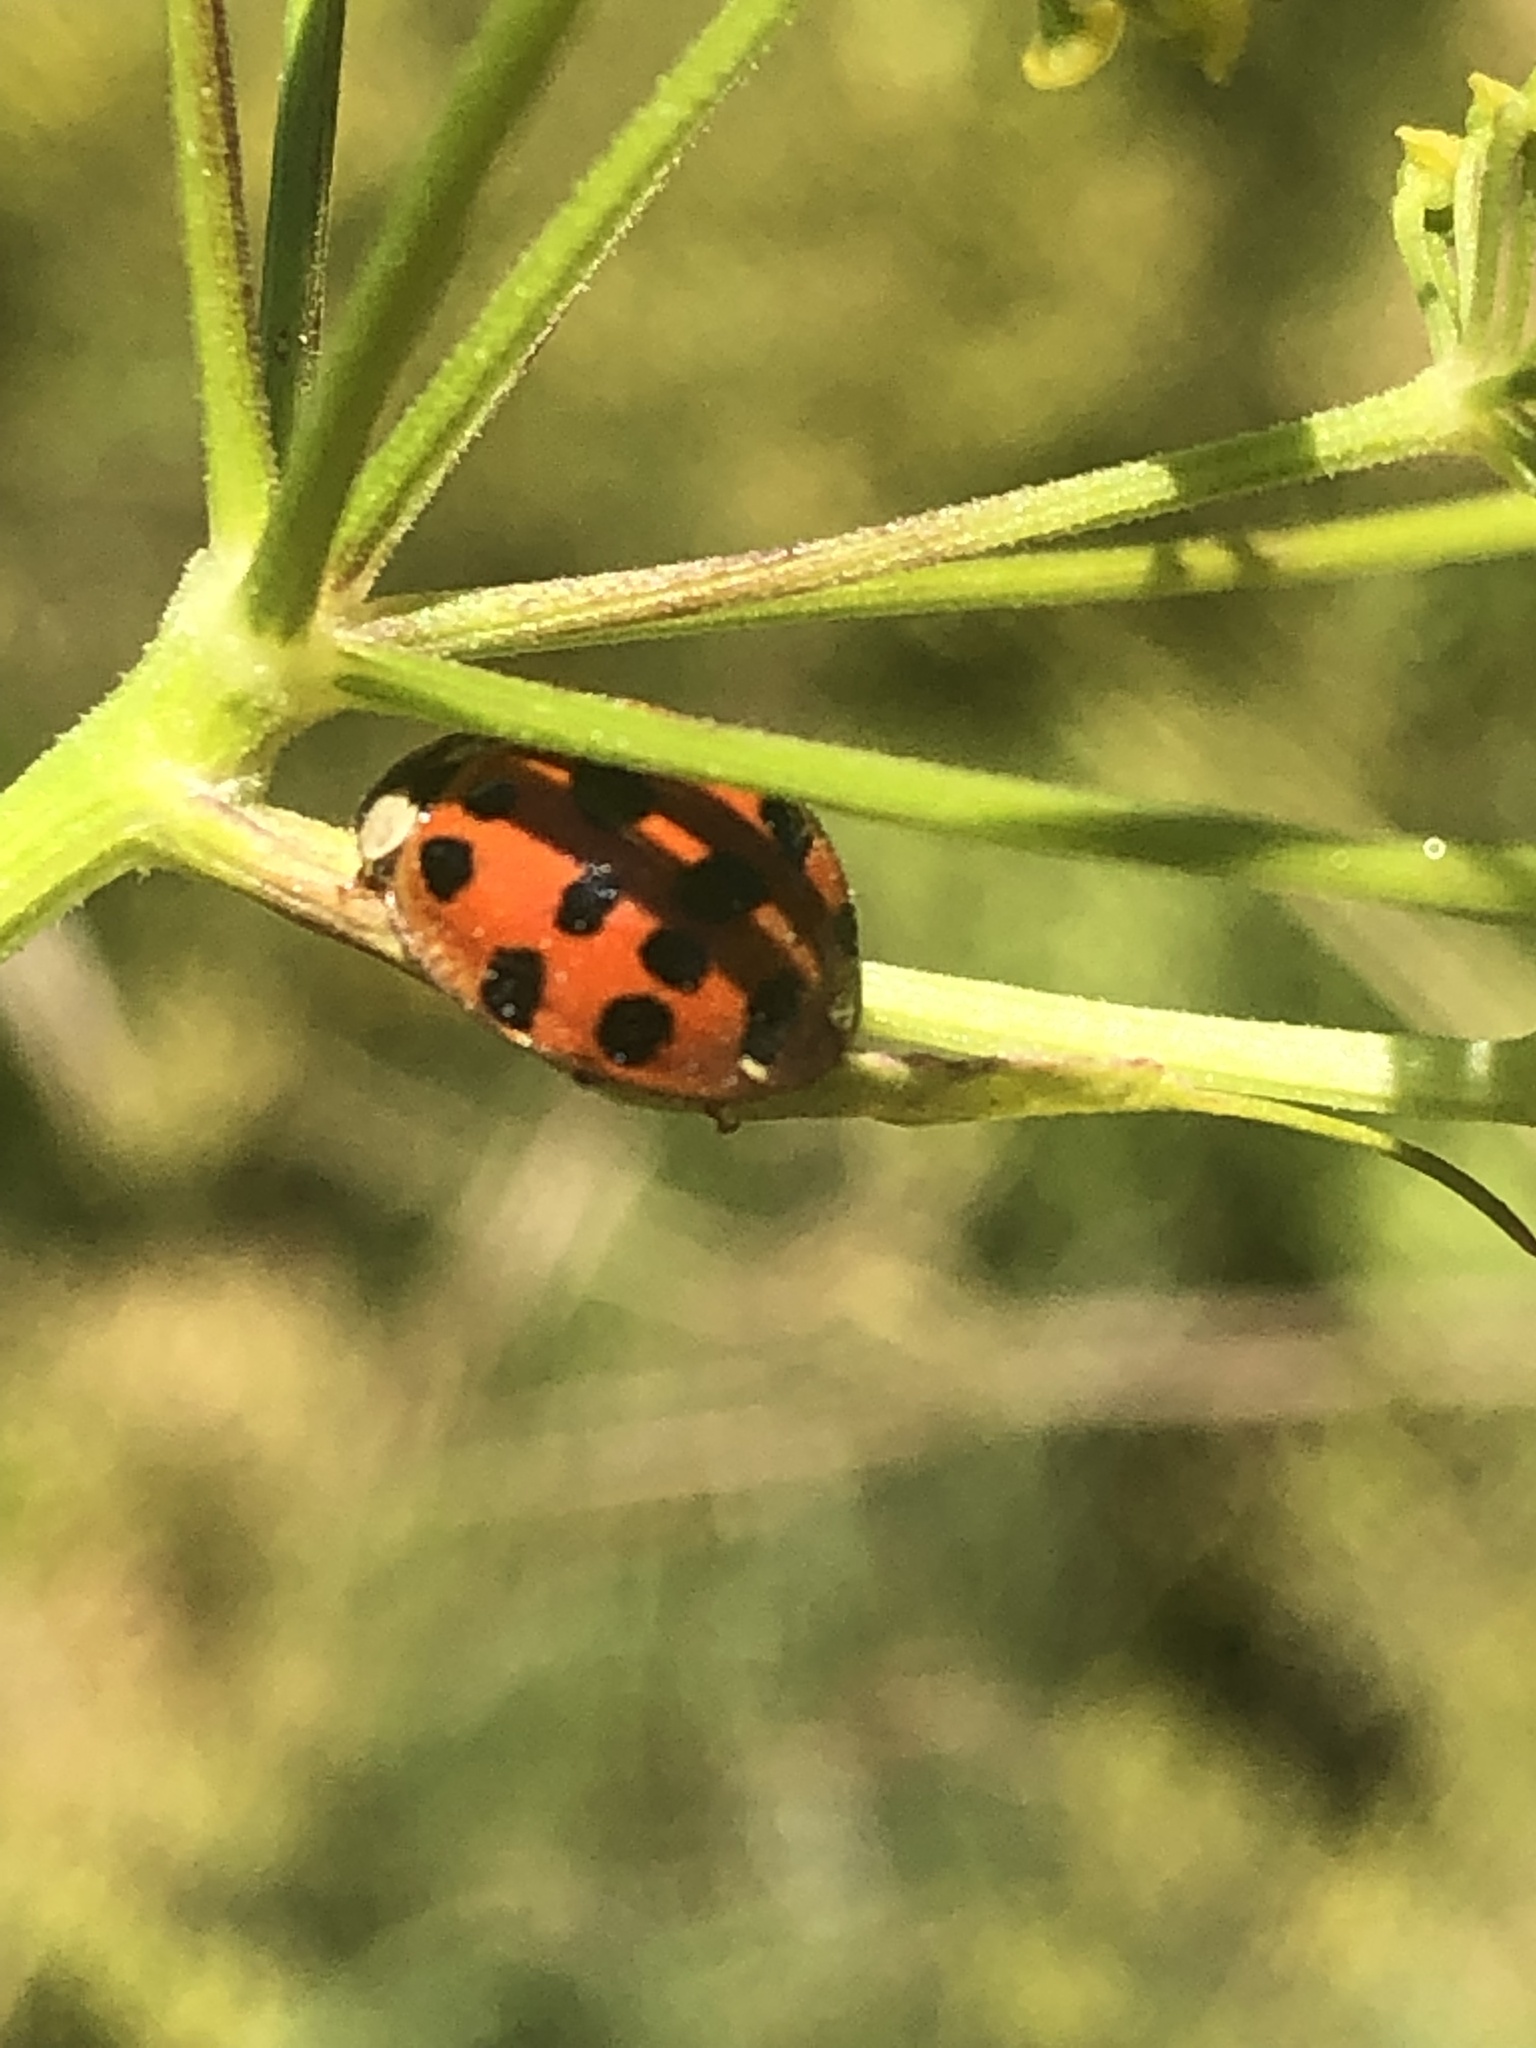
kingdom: Animalia
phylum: Arthropoda
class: Insecta
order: Coleoptera
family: Coccinellidae
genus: Harmonia
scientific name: Harmonia axyridis
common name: Harlequin ladybird
